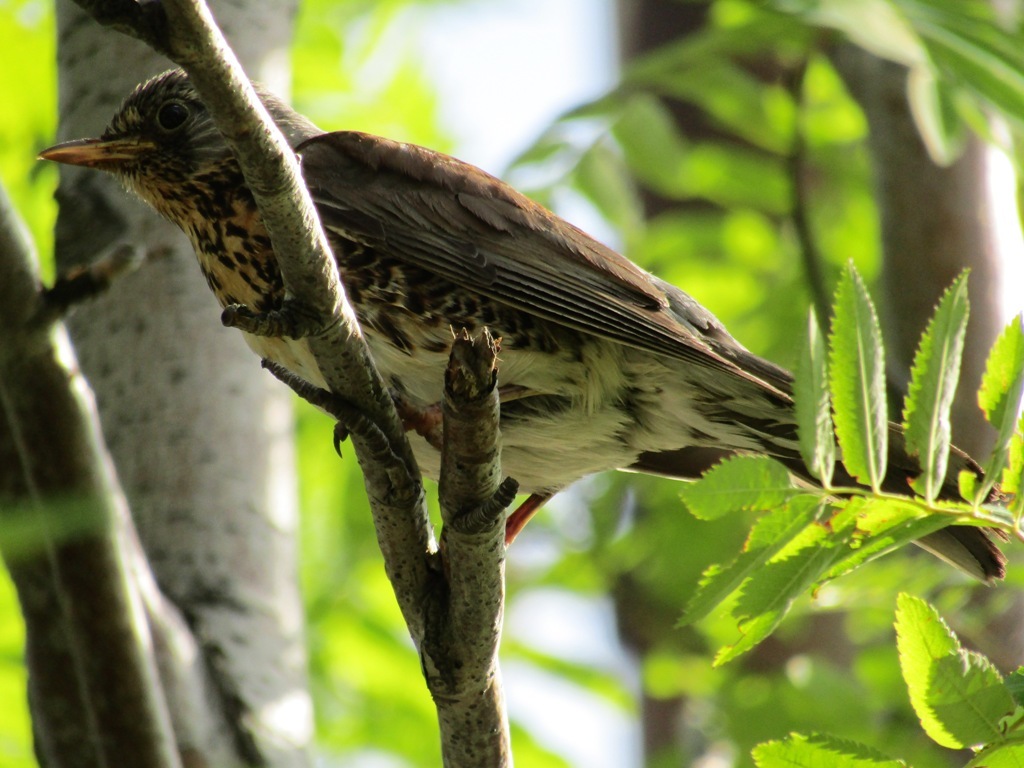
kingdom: Animalia
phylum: Chordata
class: Aves
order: Passeriformes
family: Turdidae
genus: Turdus
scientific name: Turdus pilaris
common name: Fieldfare
